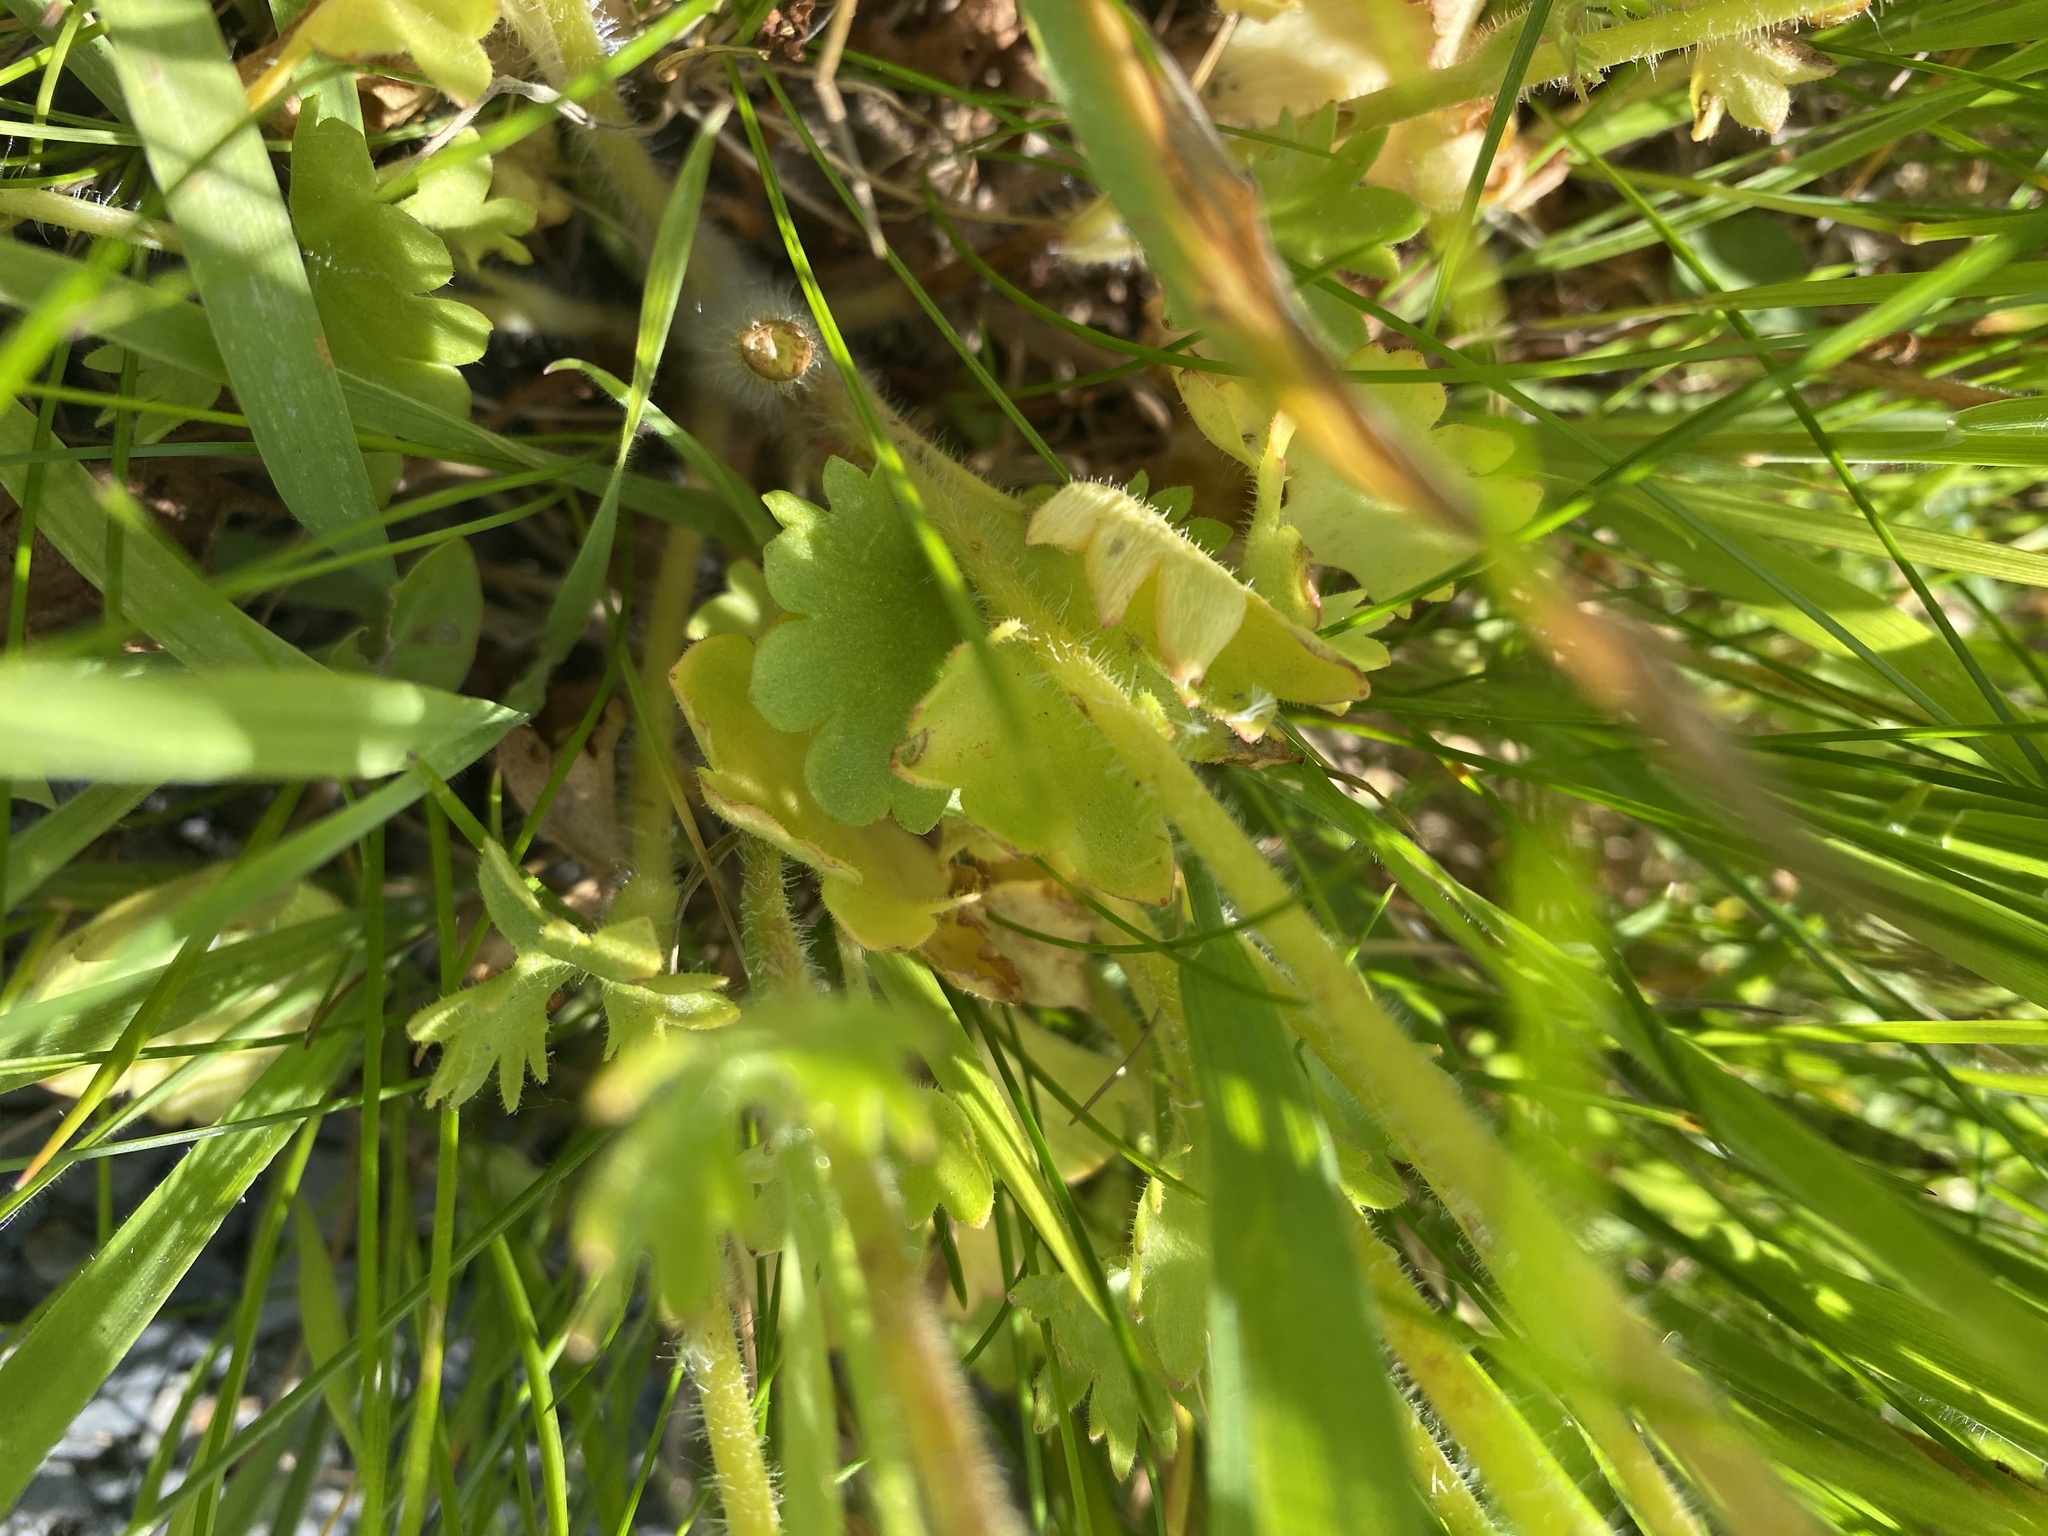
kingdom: Plantae
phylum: Tracheophyta
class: Magnoliopsida
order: Saxifragales
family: Saxifragaceae
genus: Saxifraga
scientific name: Saxifraga granulata
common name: Meadow saxifrage
